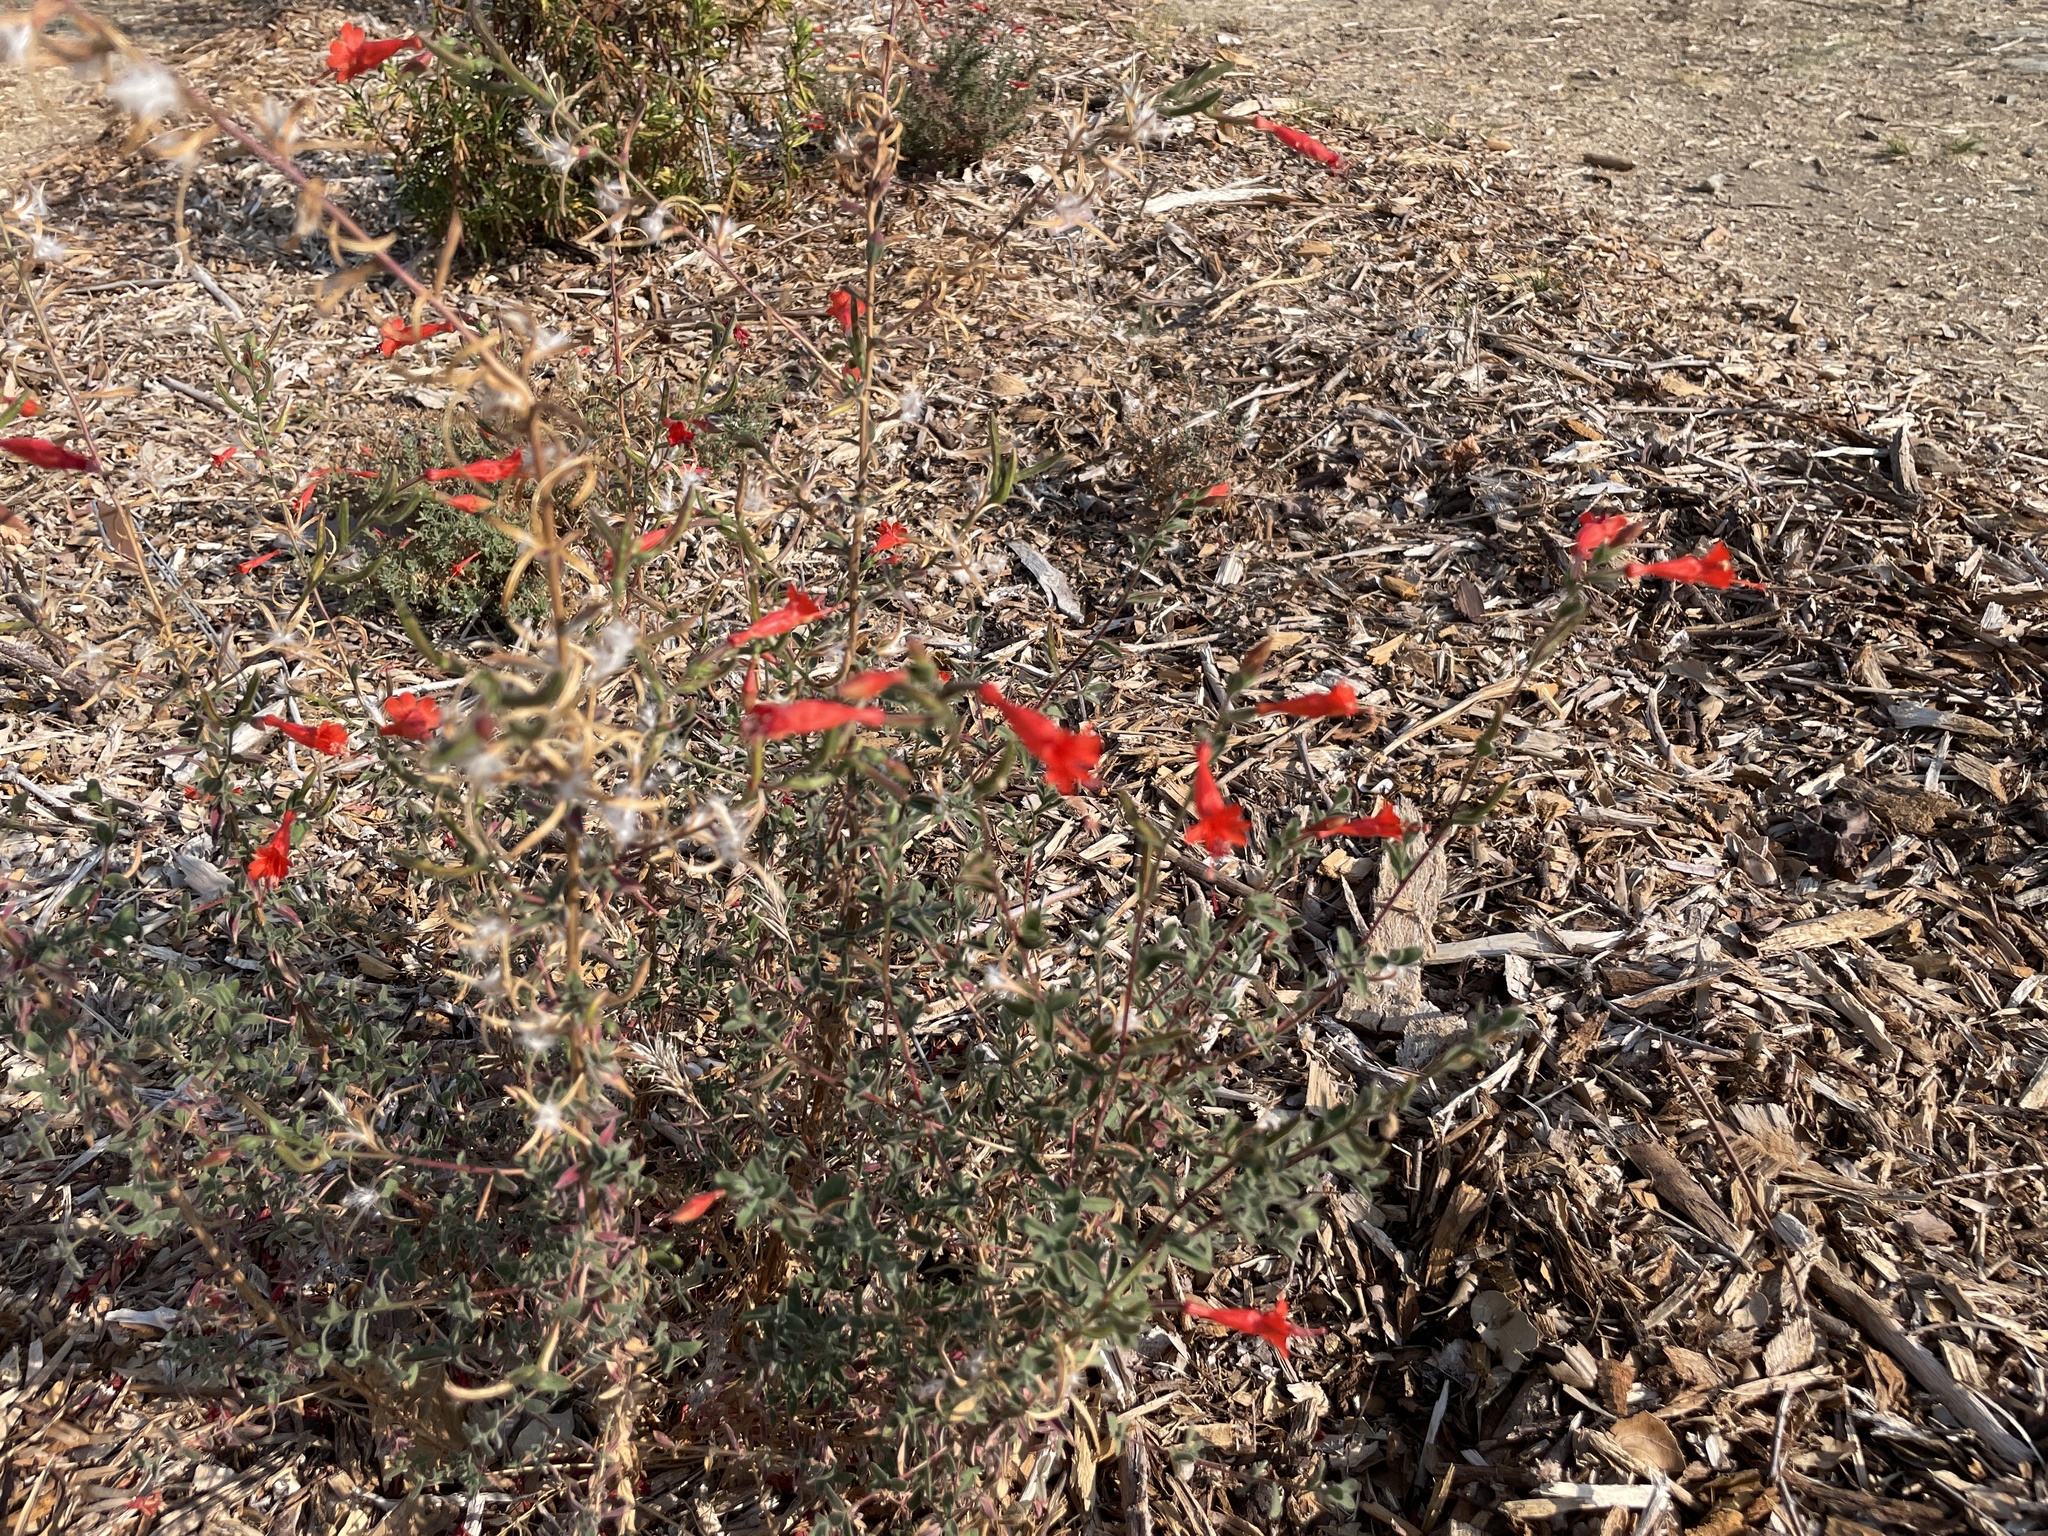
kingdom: Plantae
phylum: Tracheophyta
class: Magnoliopsida
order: Myrtales
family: Onagraceae
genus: Epilobium
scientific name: Epilobium canum
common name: California-fuchsia
